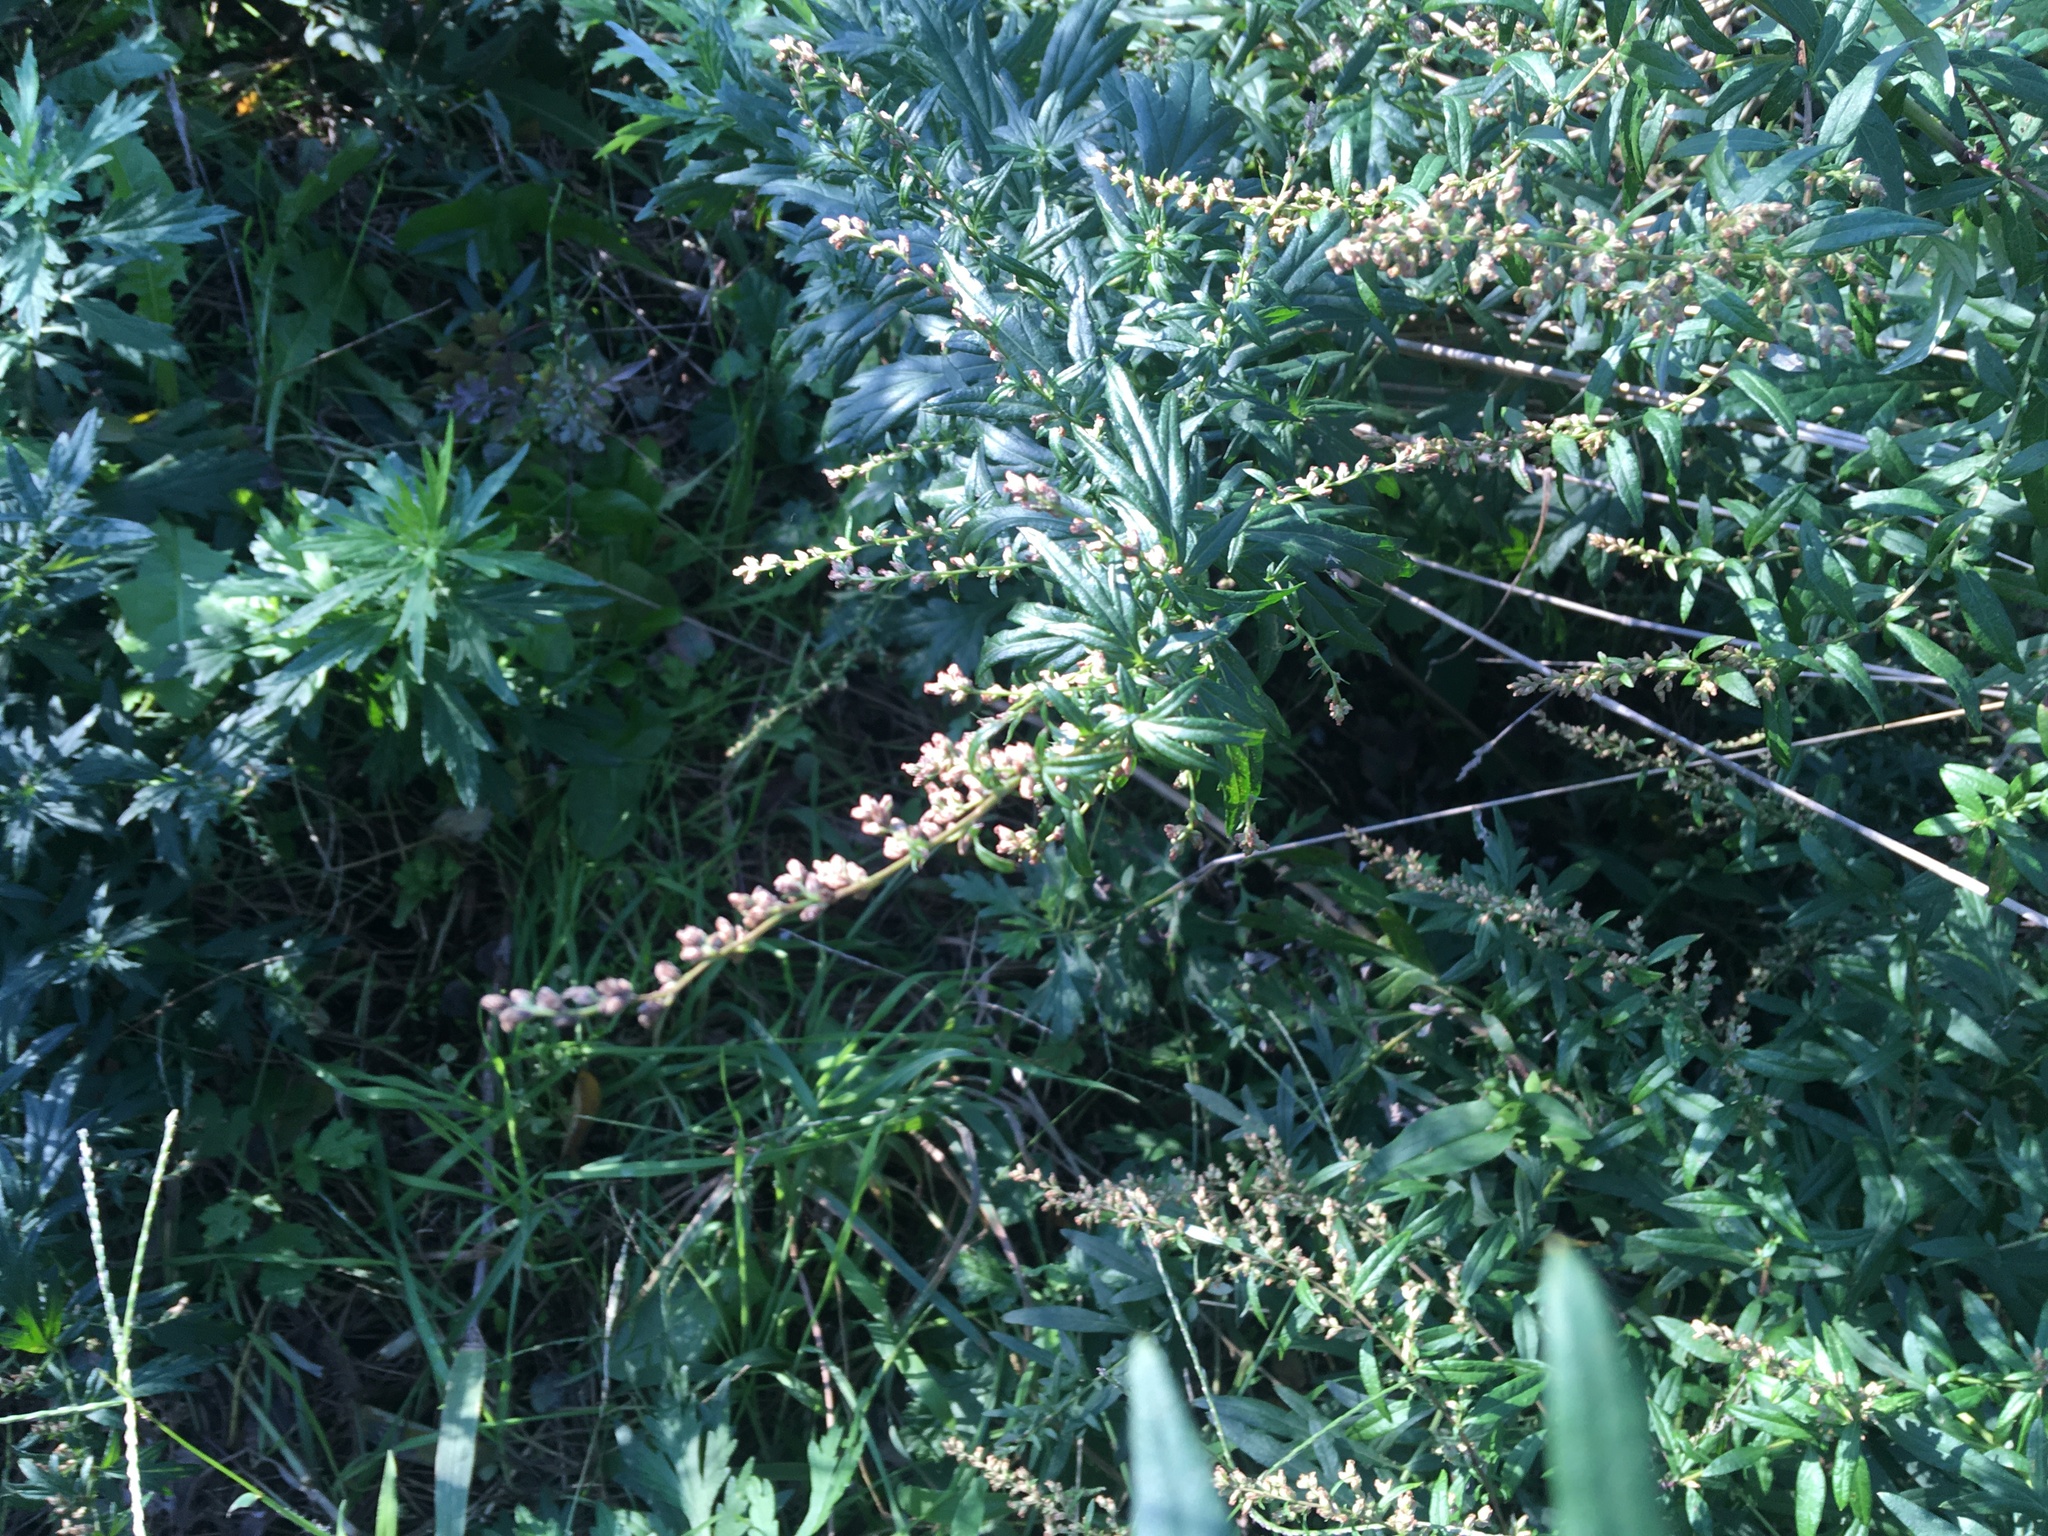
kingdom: Plantae
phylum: Tracheophyta
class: Magnoliopsida
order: Asterales
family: Asteraceae
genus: Artemisia
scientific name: Artemisia vulgaris
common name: Mugwort
